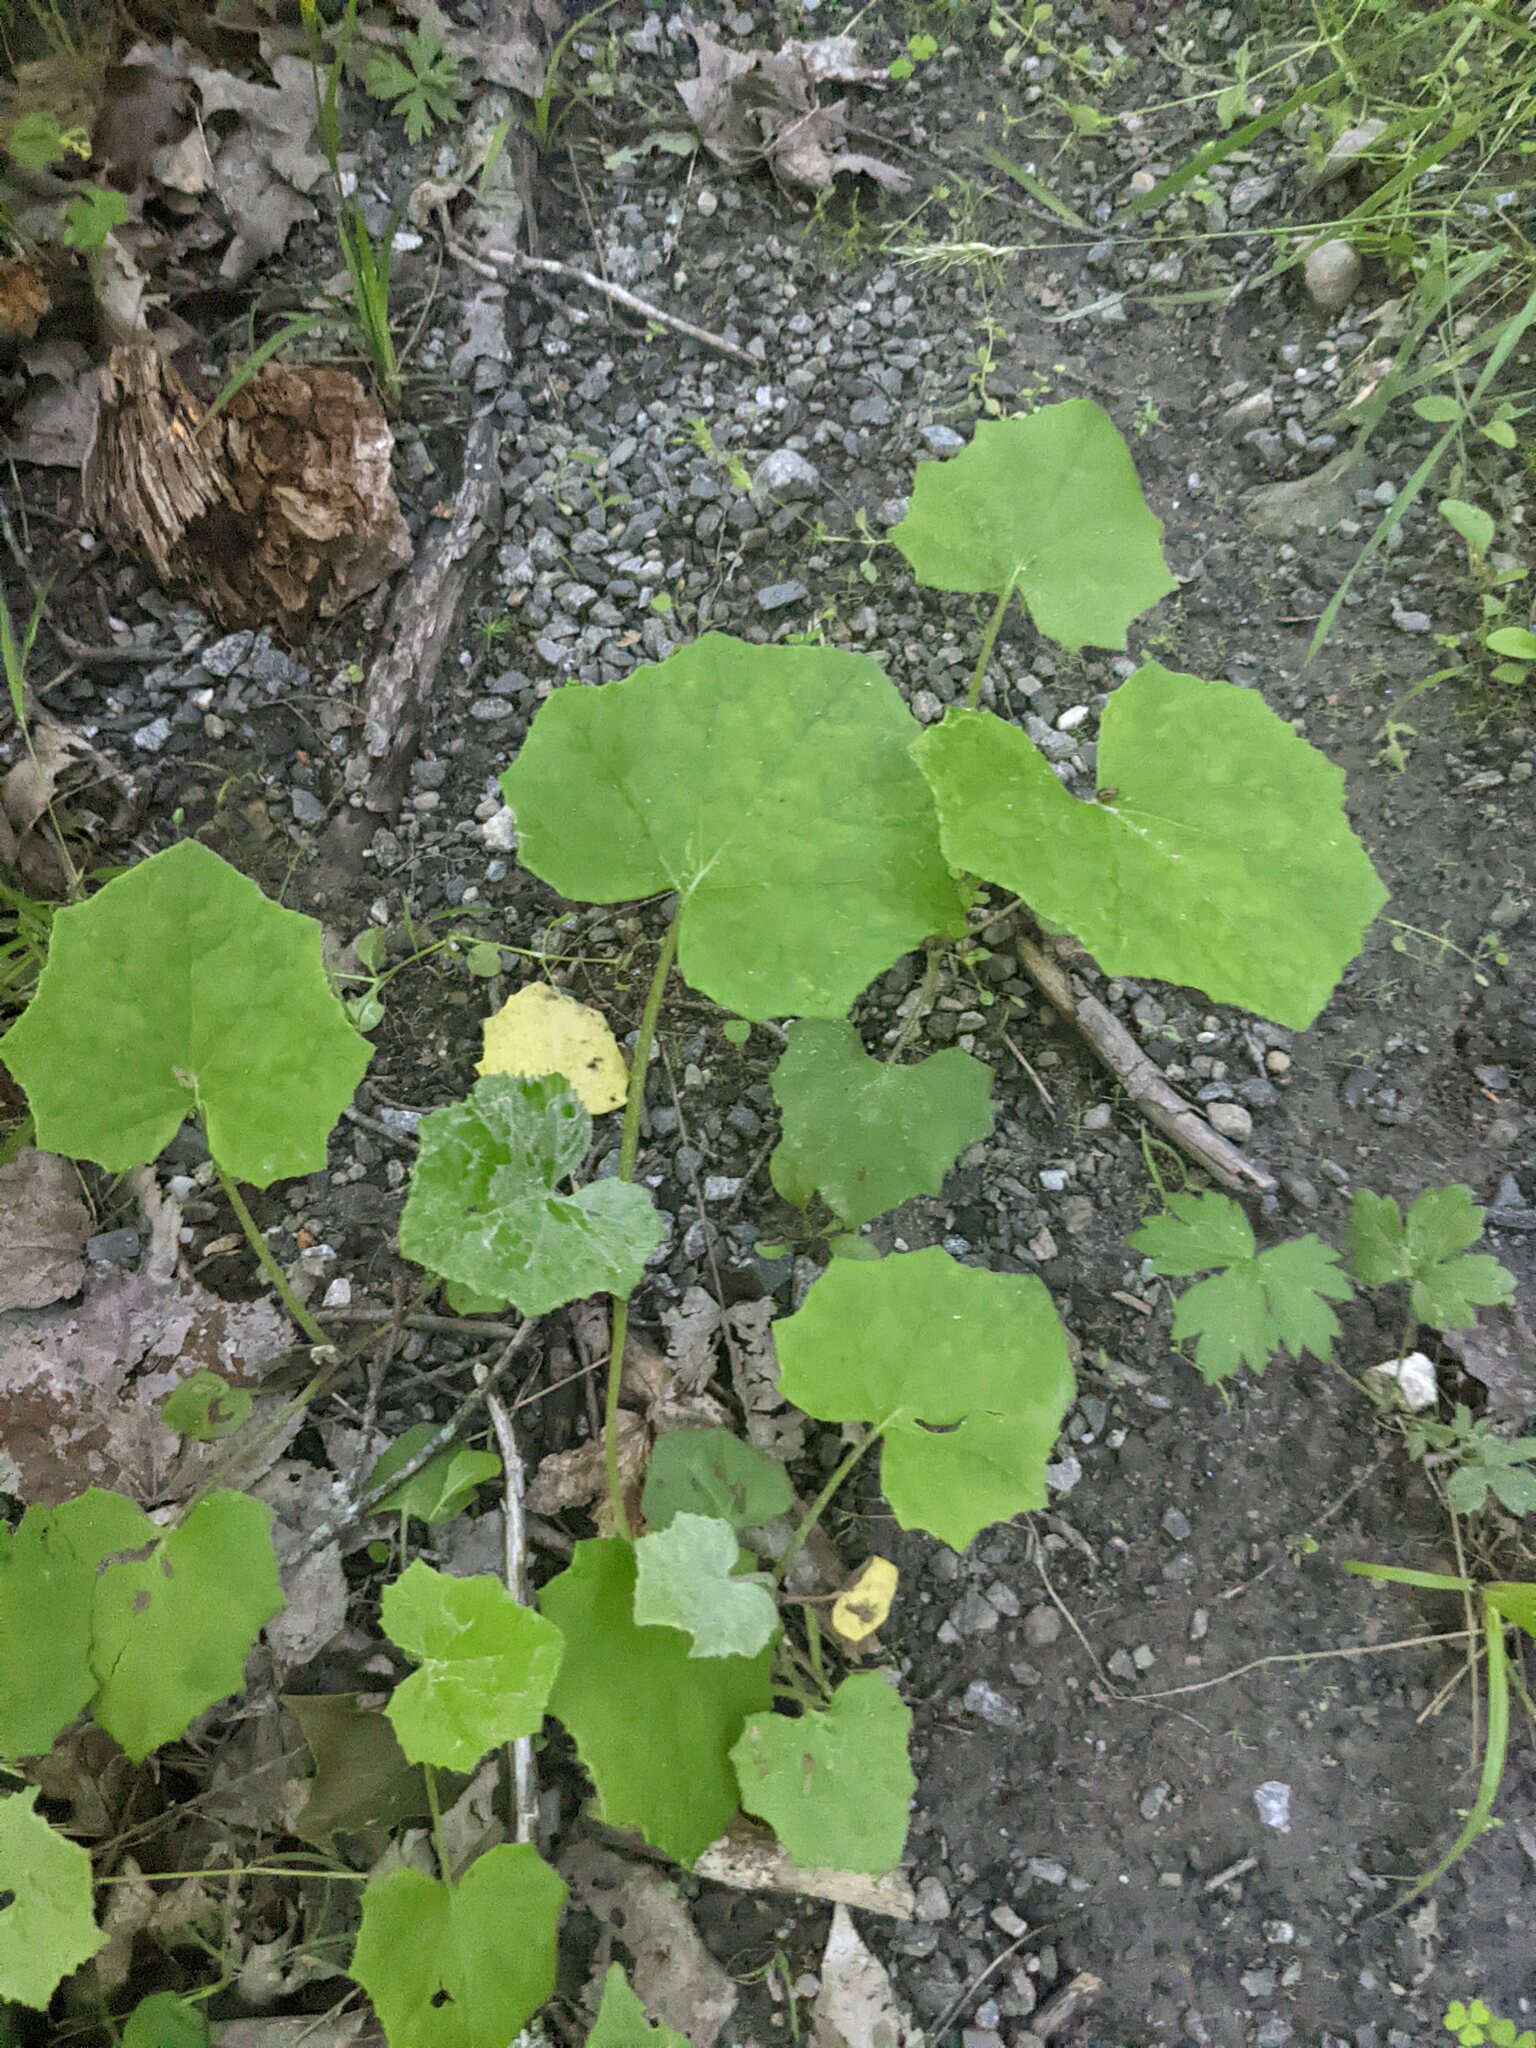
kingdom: Plantae
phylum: Tracheophyta
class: Magnoliopsida
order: Asterales
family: Asteraceae
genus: Tussilago
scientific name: Tussilago farfara
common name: Coltsfoot
